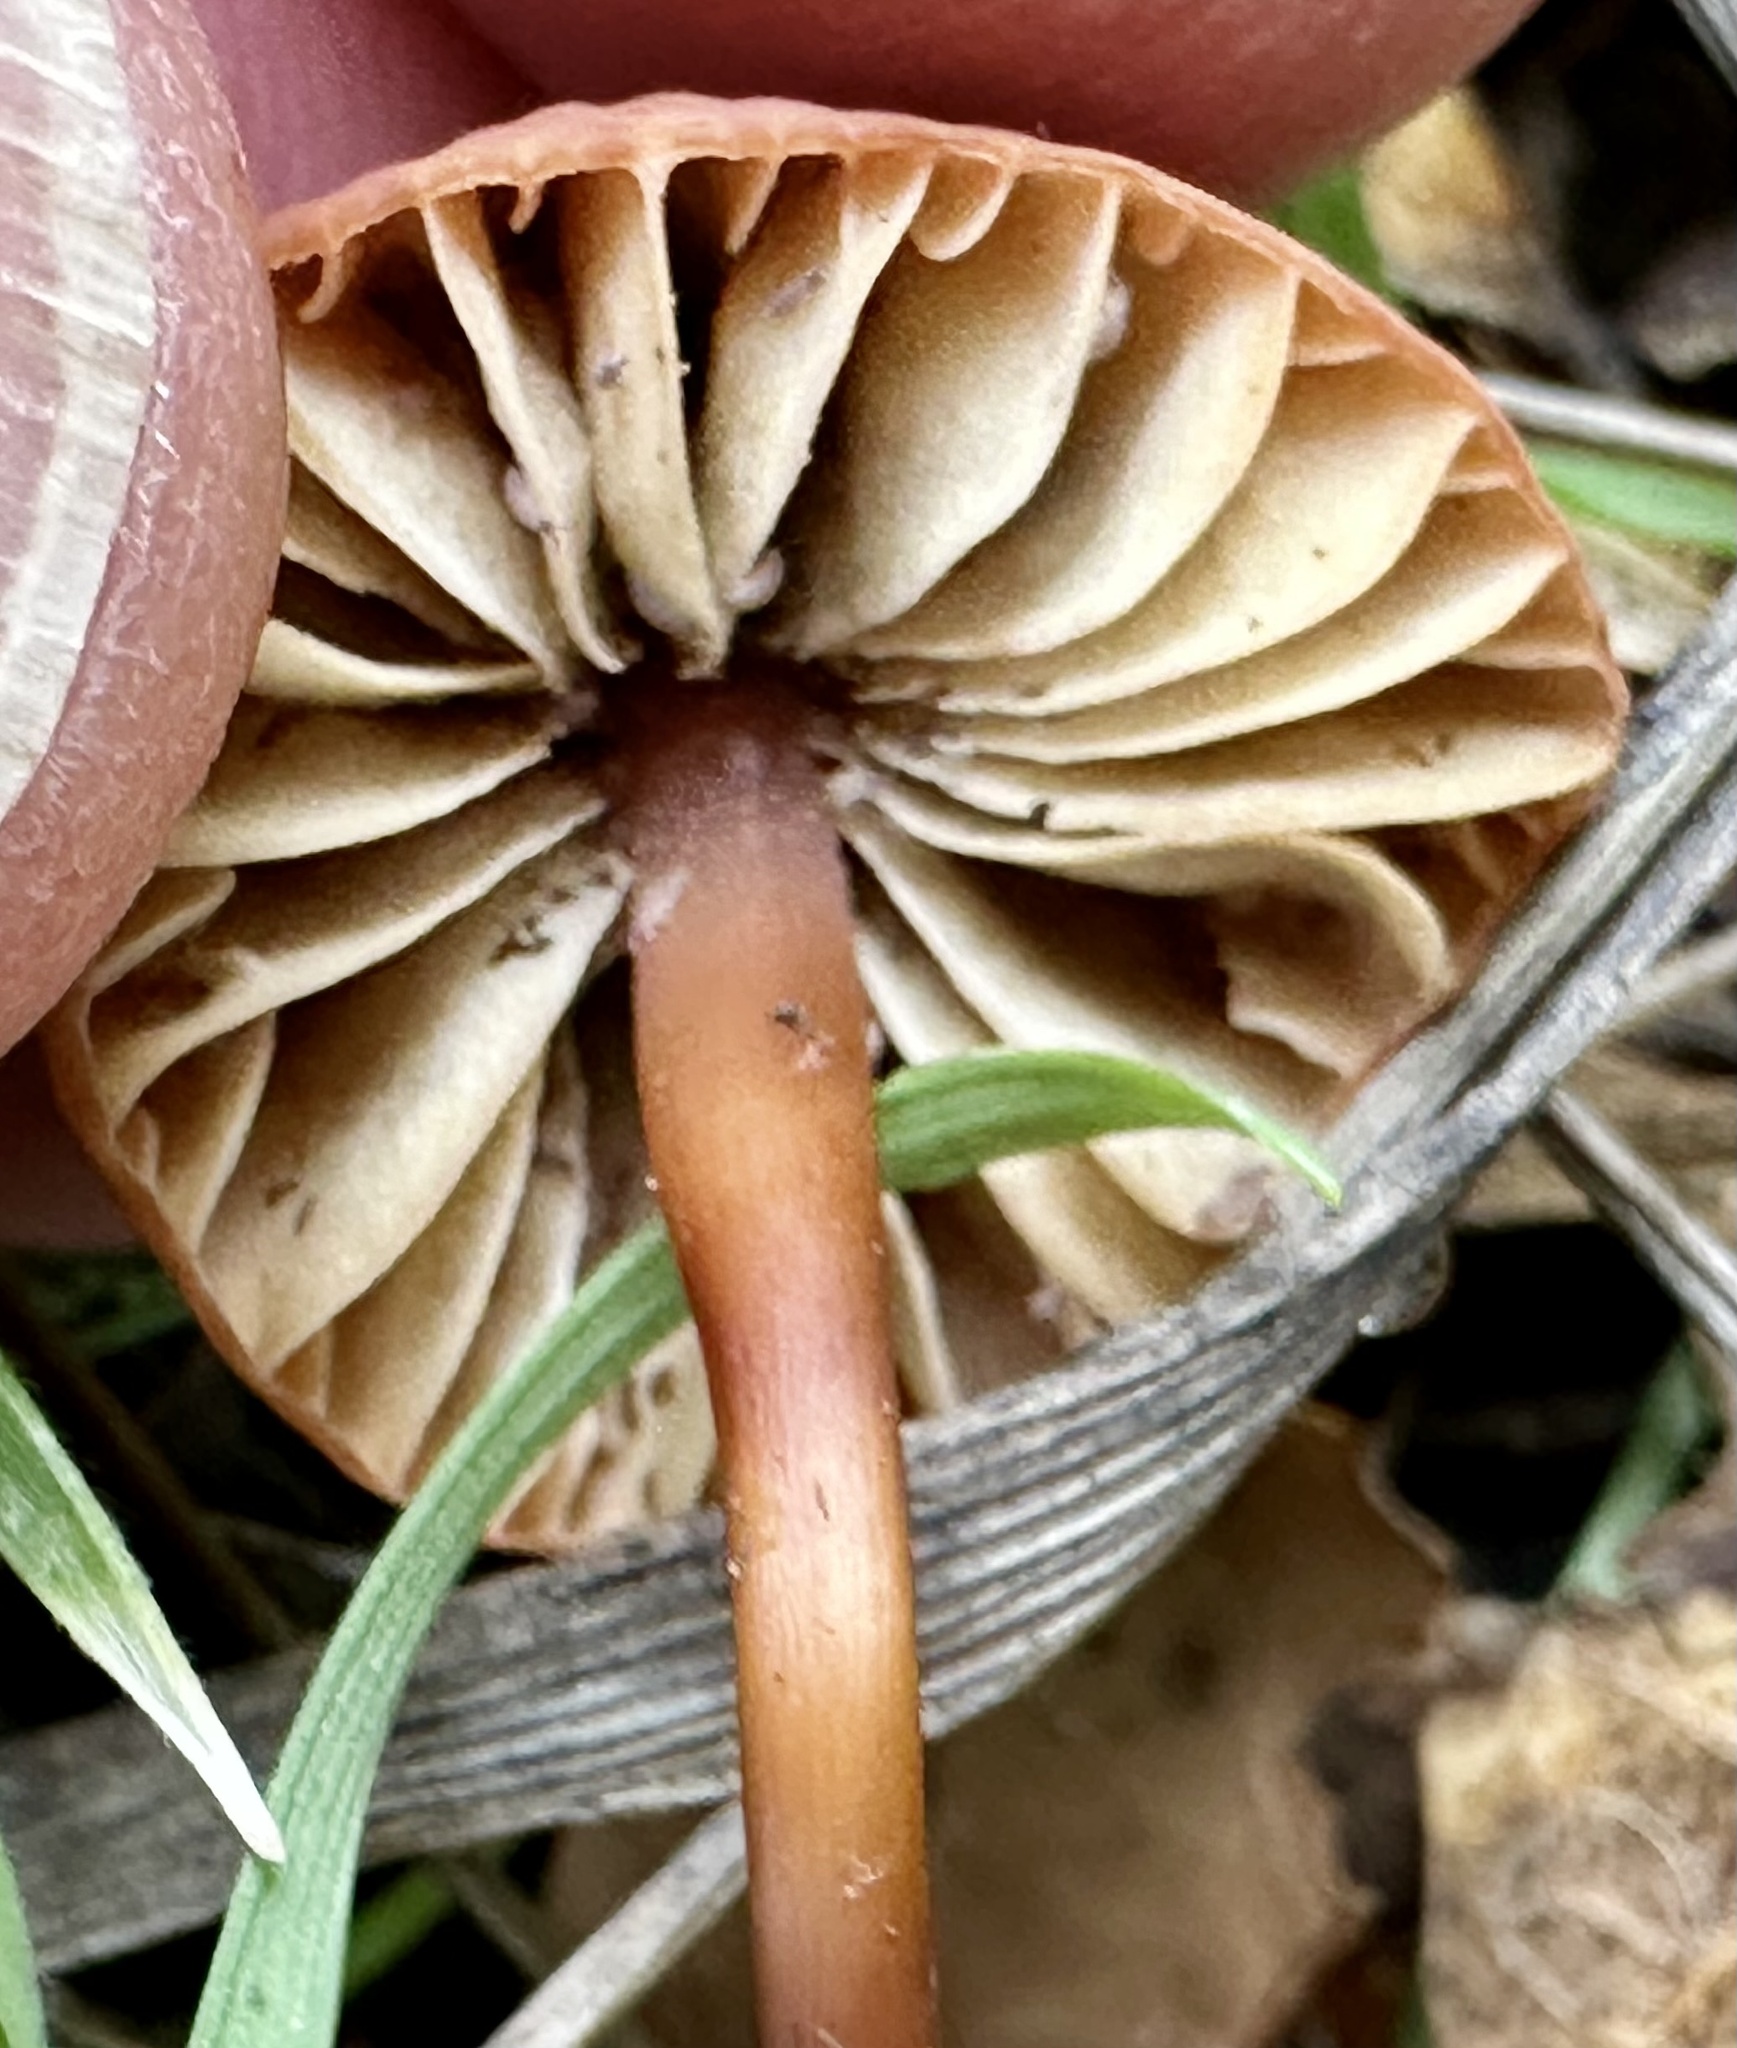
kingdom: Fungi
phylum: Basidiomycota
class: Agaricomycetes
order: Agaricales
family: Marasmiaceae
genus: Marasmius
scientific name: Marasmius plicatulus
